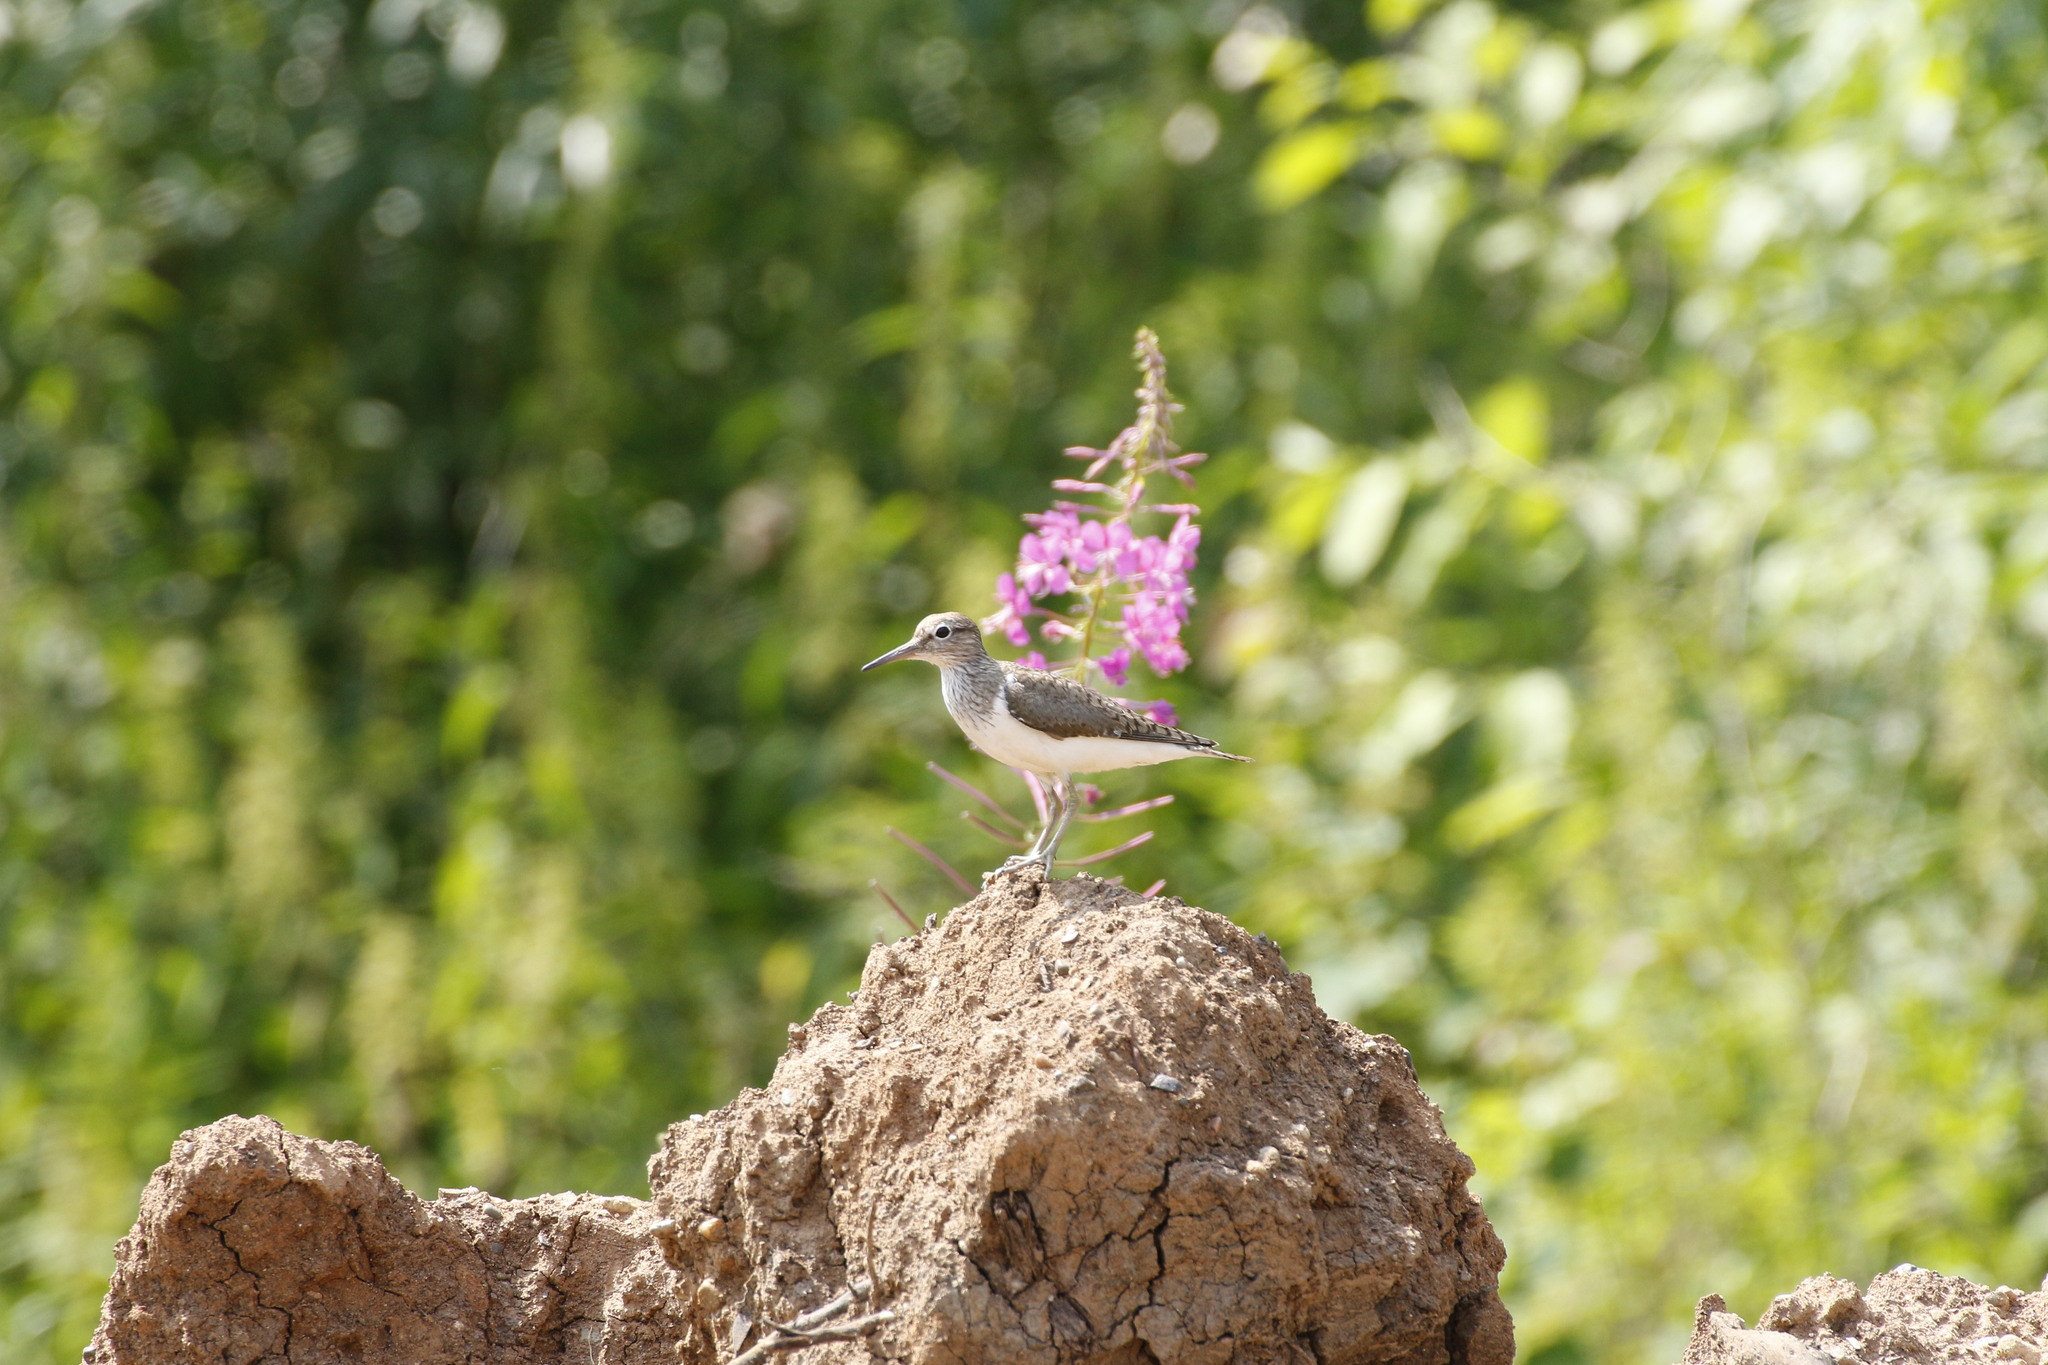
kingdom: Animalia
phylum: Chordata
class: Aves
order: Charadriiformes
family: Scolopacidae
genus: Actitis
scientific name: Actitis hypoleucos
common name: Common sandpiper
